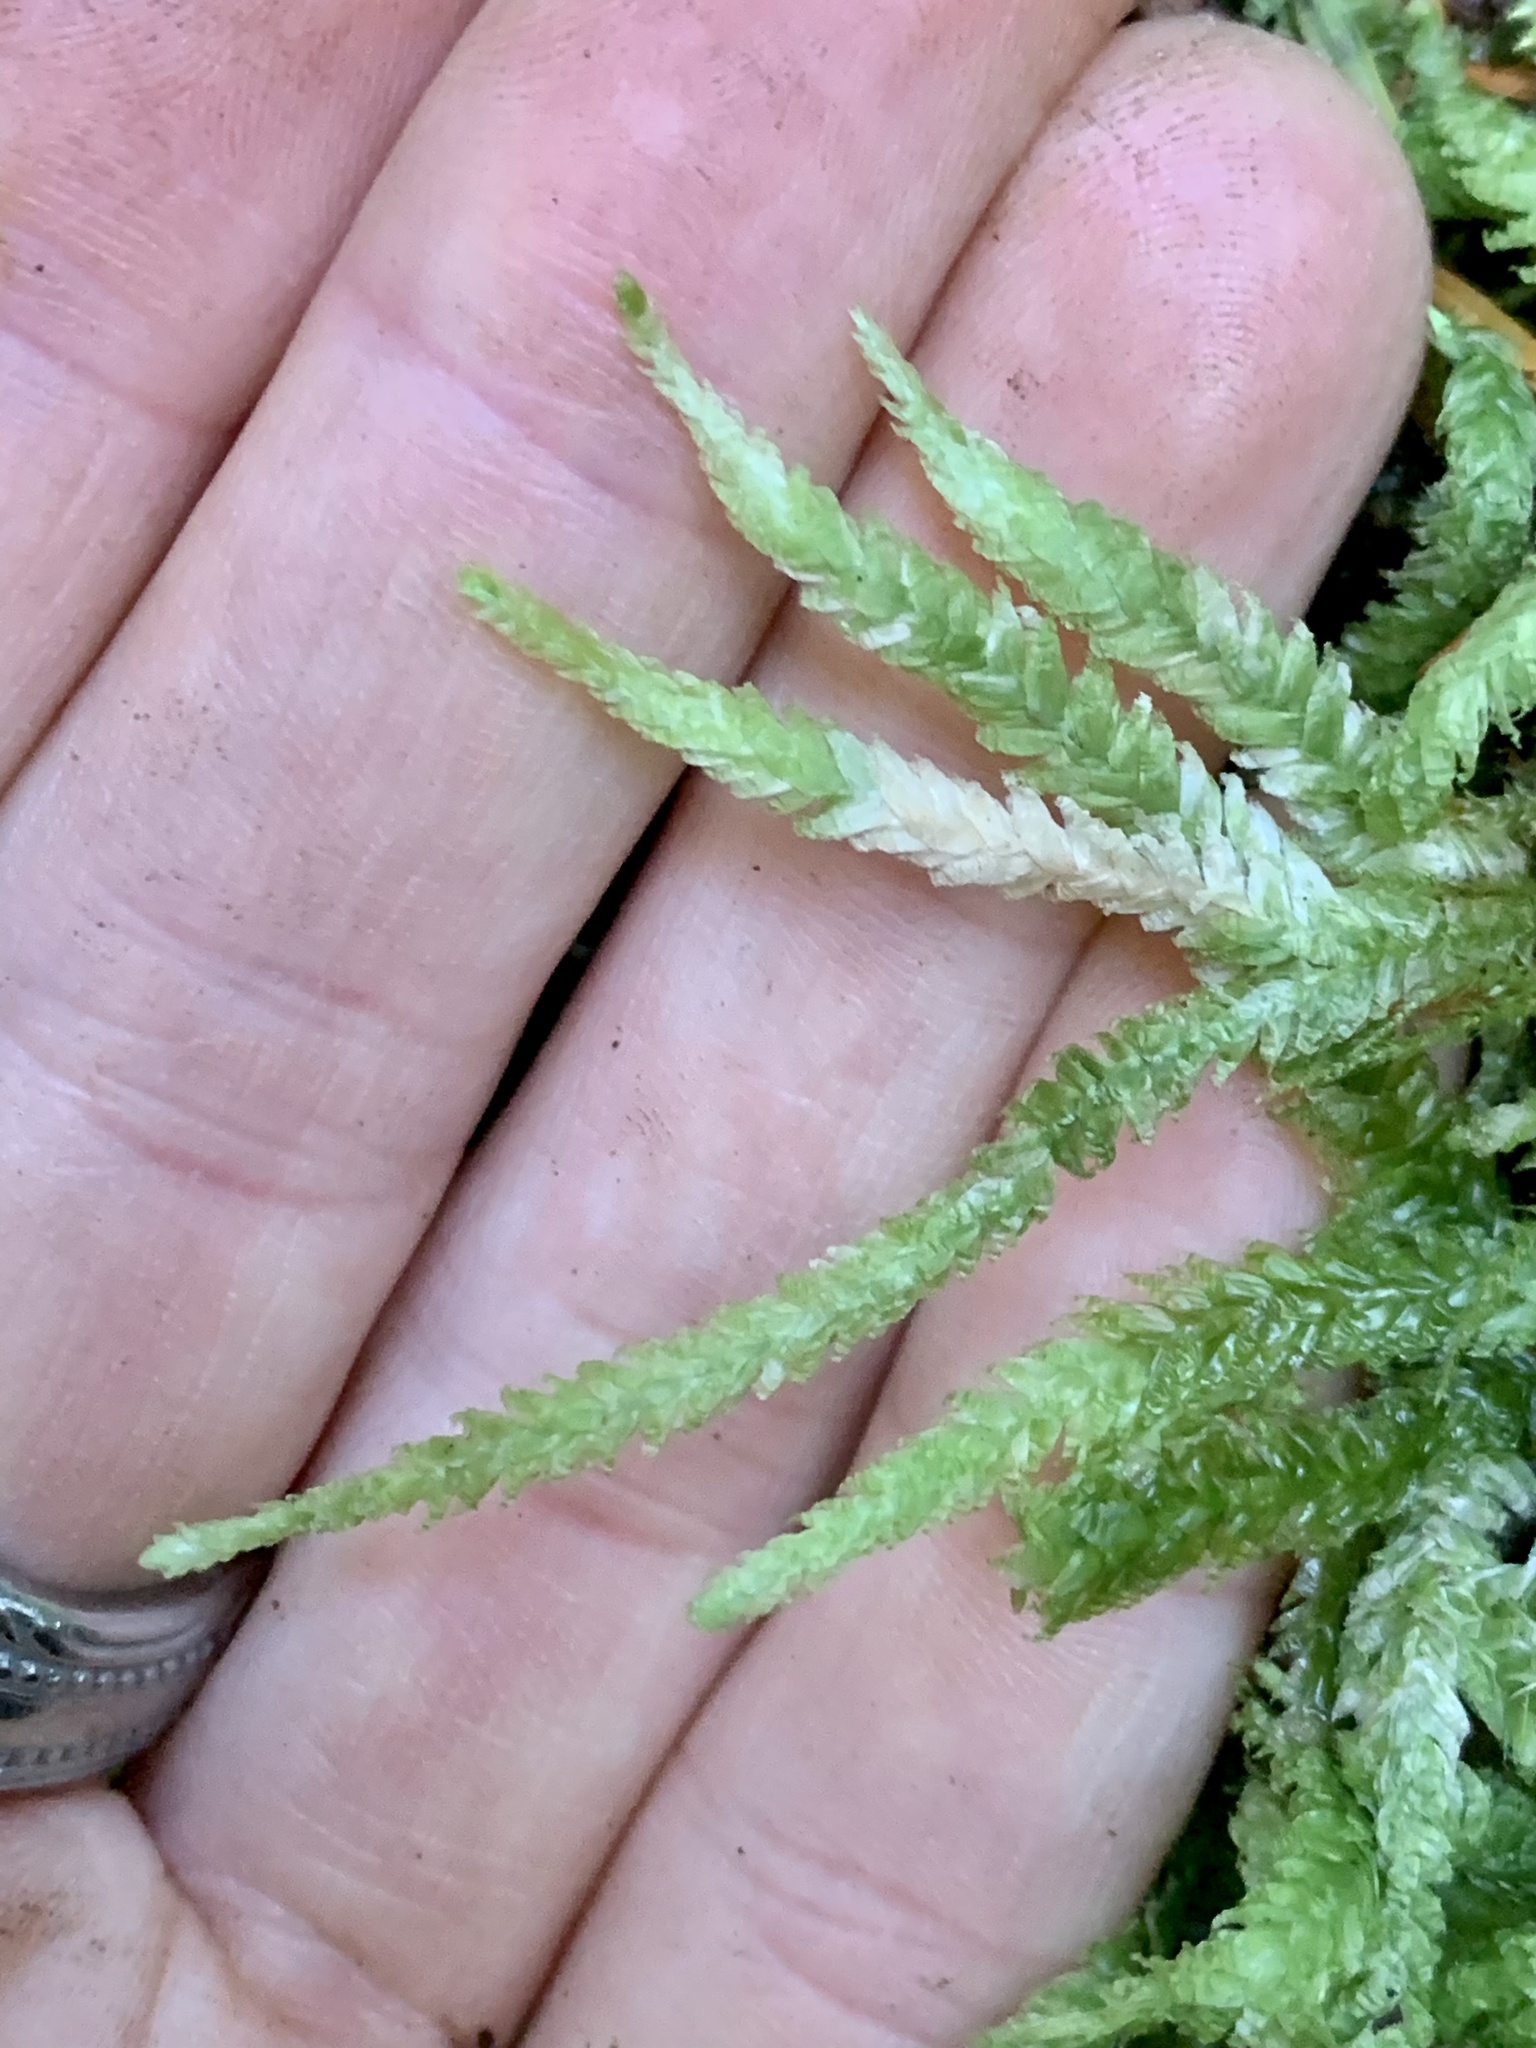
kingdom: Plantae
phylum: Bryophyta
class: Bryopsida
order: Hypnales
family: Plagiotheciaceae
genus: Plagiothecium
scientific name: Plagiothecium undulatum
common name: Waved silk-moss
